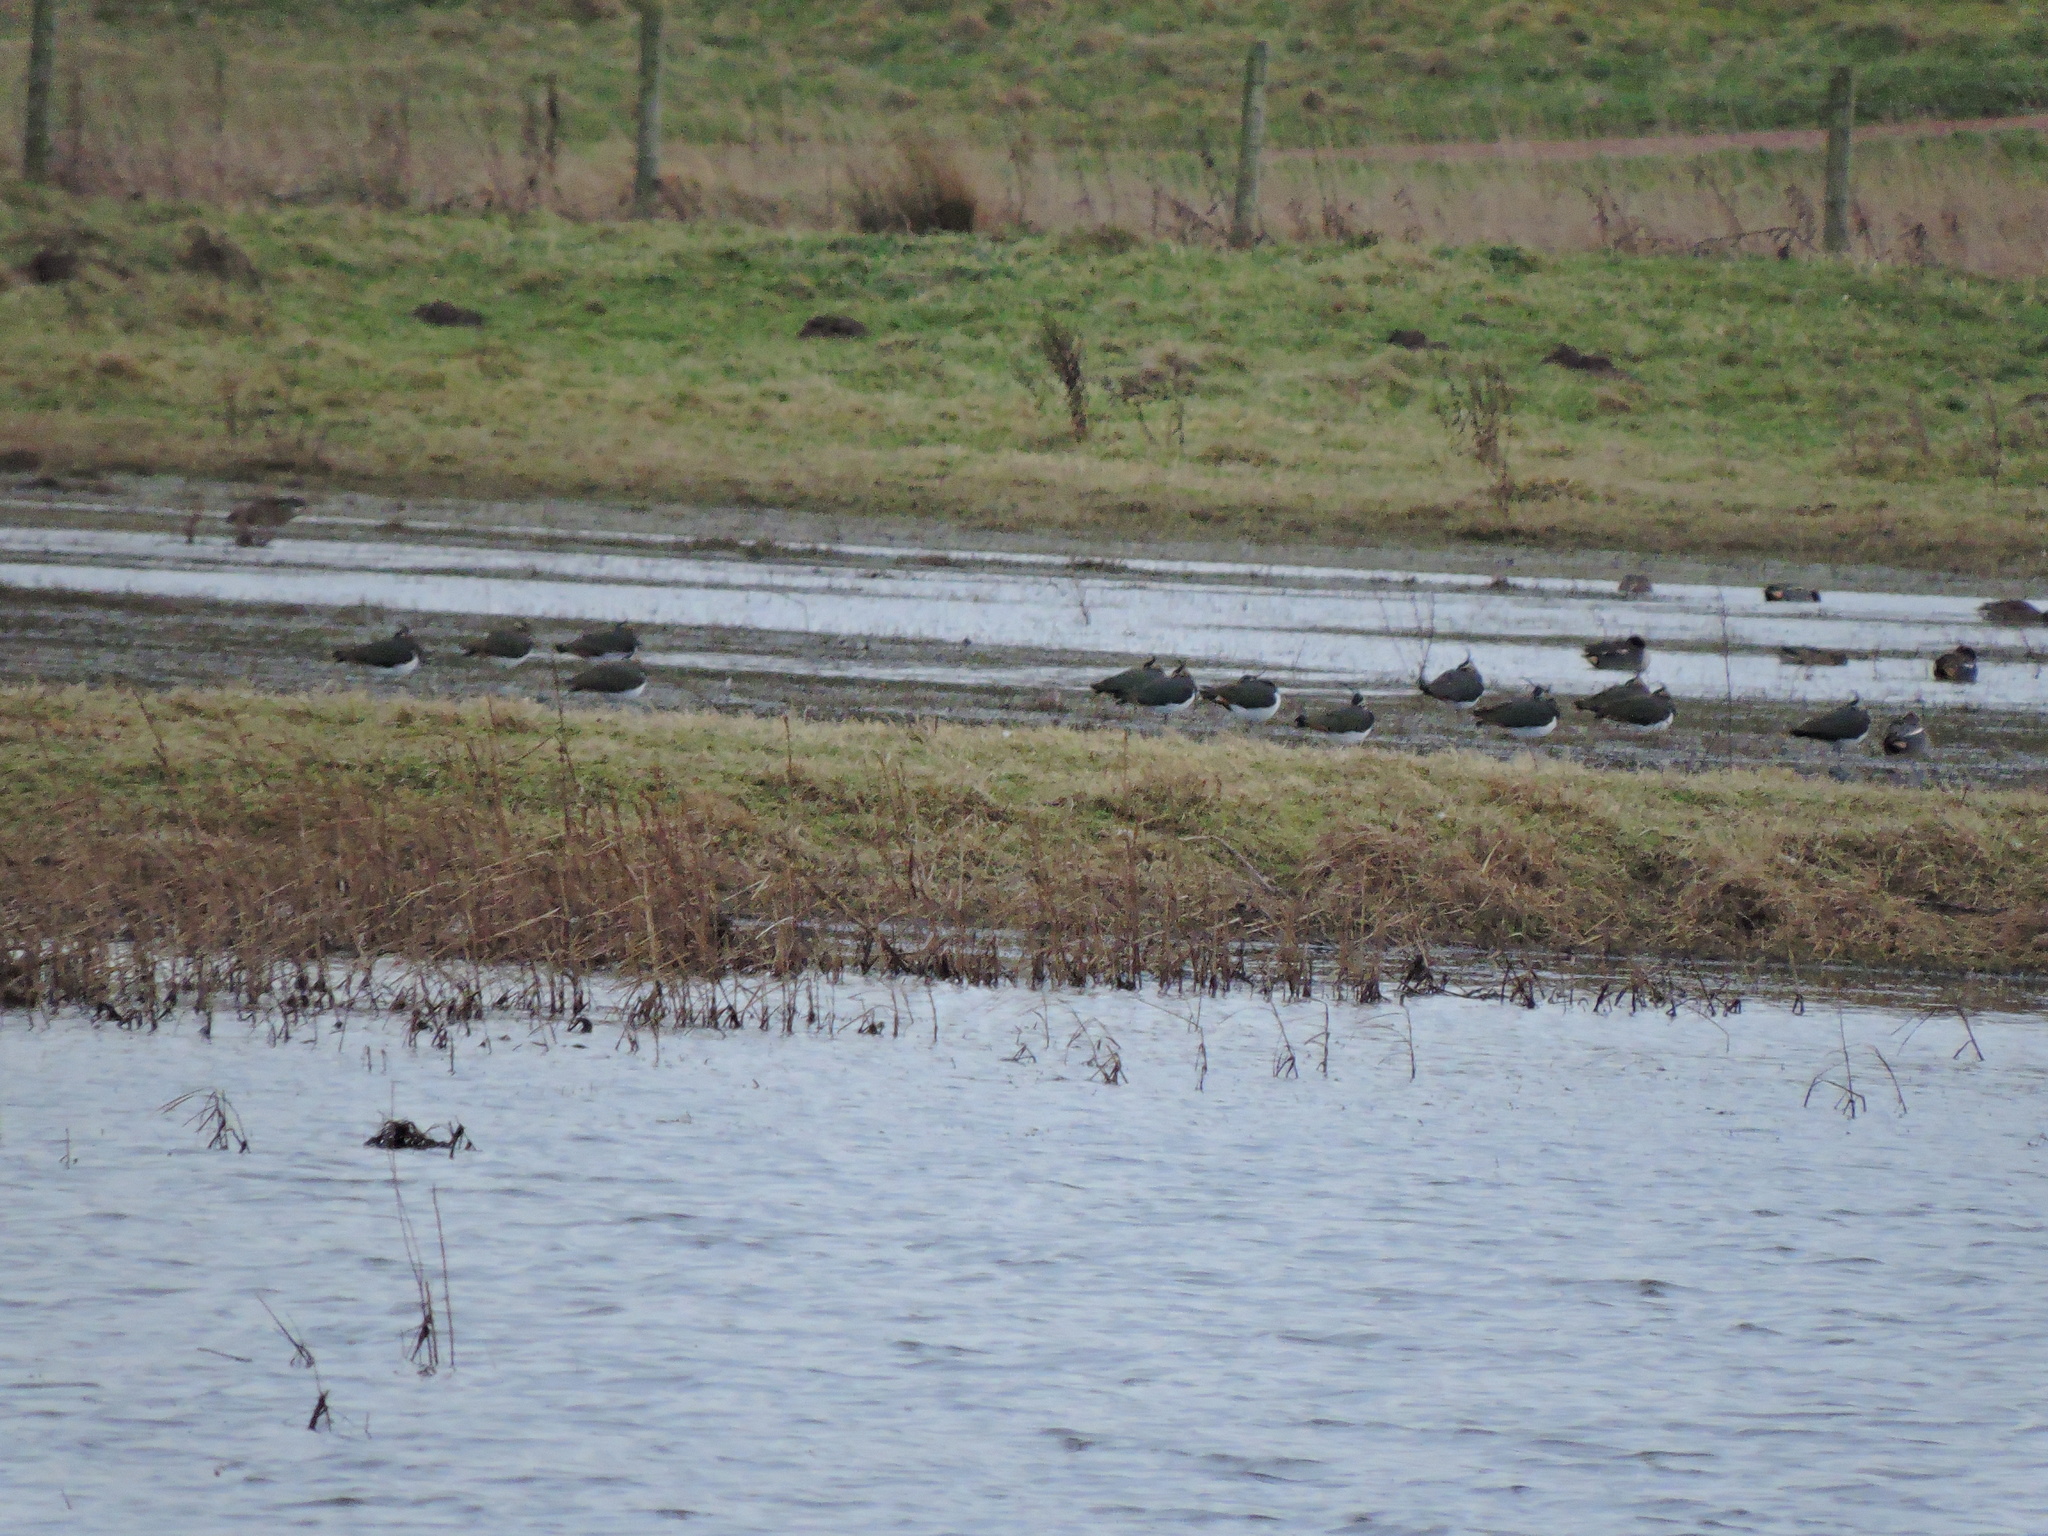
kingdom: Animalia
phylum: Chordata
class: Aves
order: Charadriiformes
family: Charadriidae
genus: Vanellus
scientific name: Vanellus vanellus
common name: Northern lapwing
